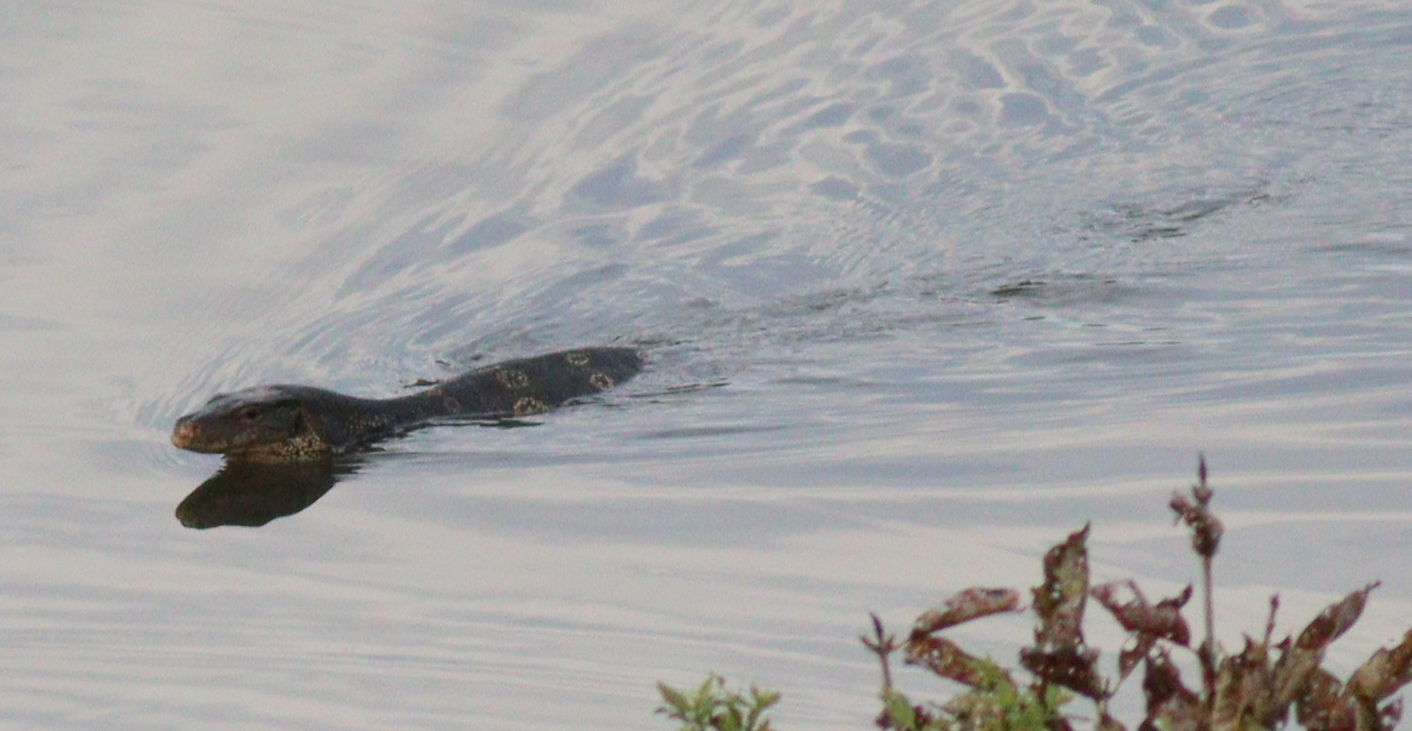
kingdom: Animalia
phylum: Chordata
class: Squamata
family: Varanidae
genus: Varanus
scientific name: Varanus salvator
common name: Common water monitor
